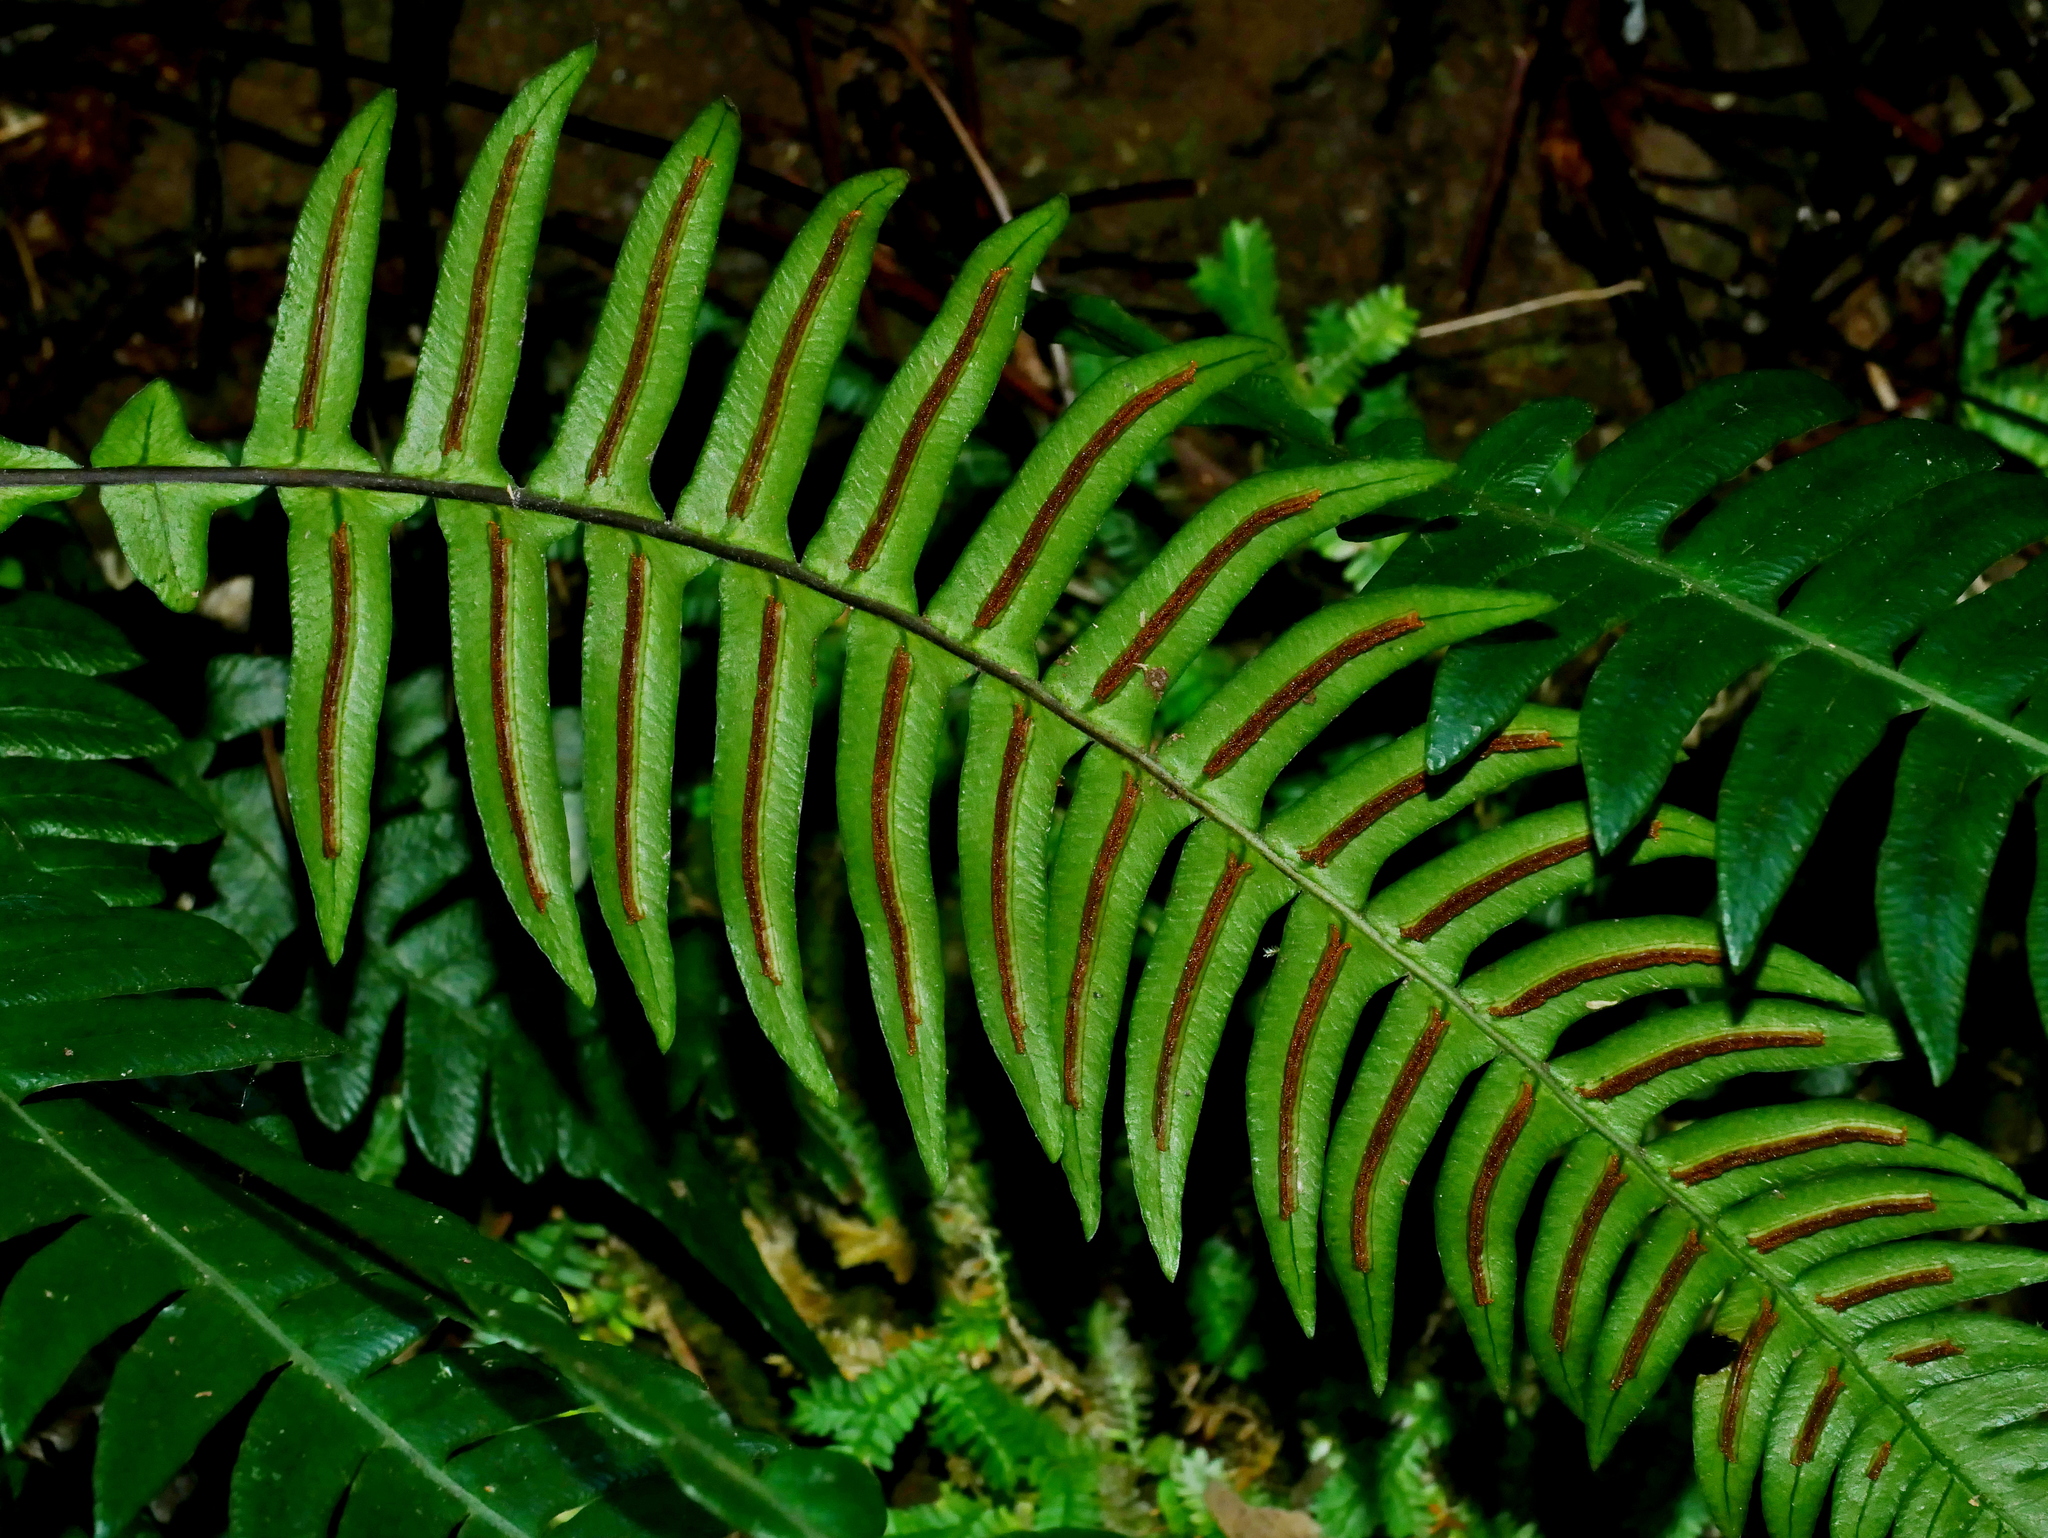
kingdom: Plantae
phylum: Tracheophyta
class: Polypodiopsida
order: Polypodiales
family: Blechnaceae
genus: Blechnidium
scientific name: Blechnidium melanopus
